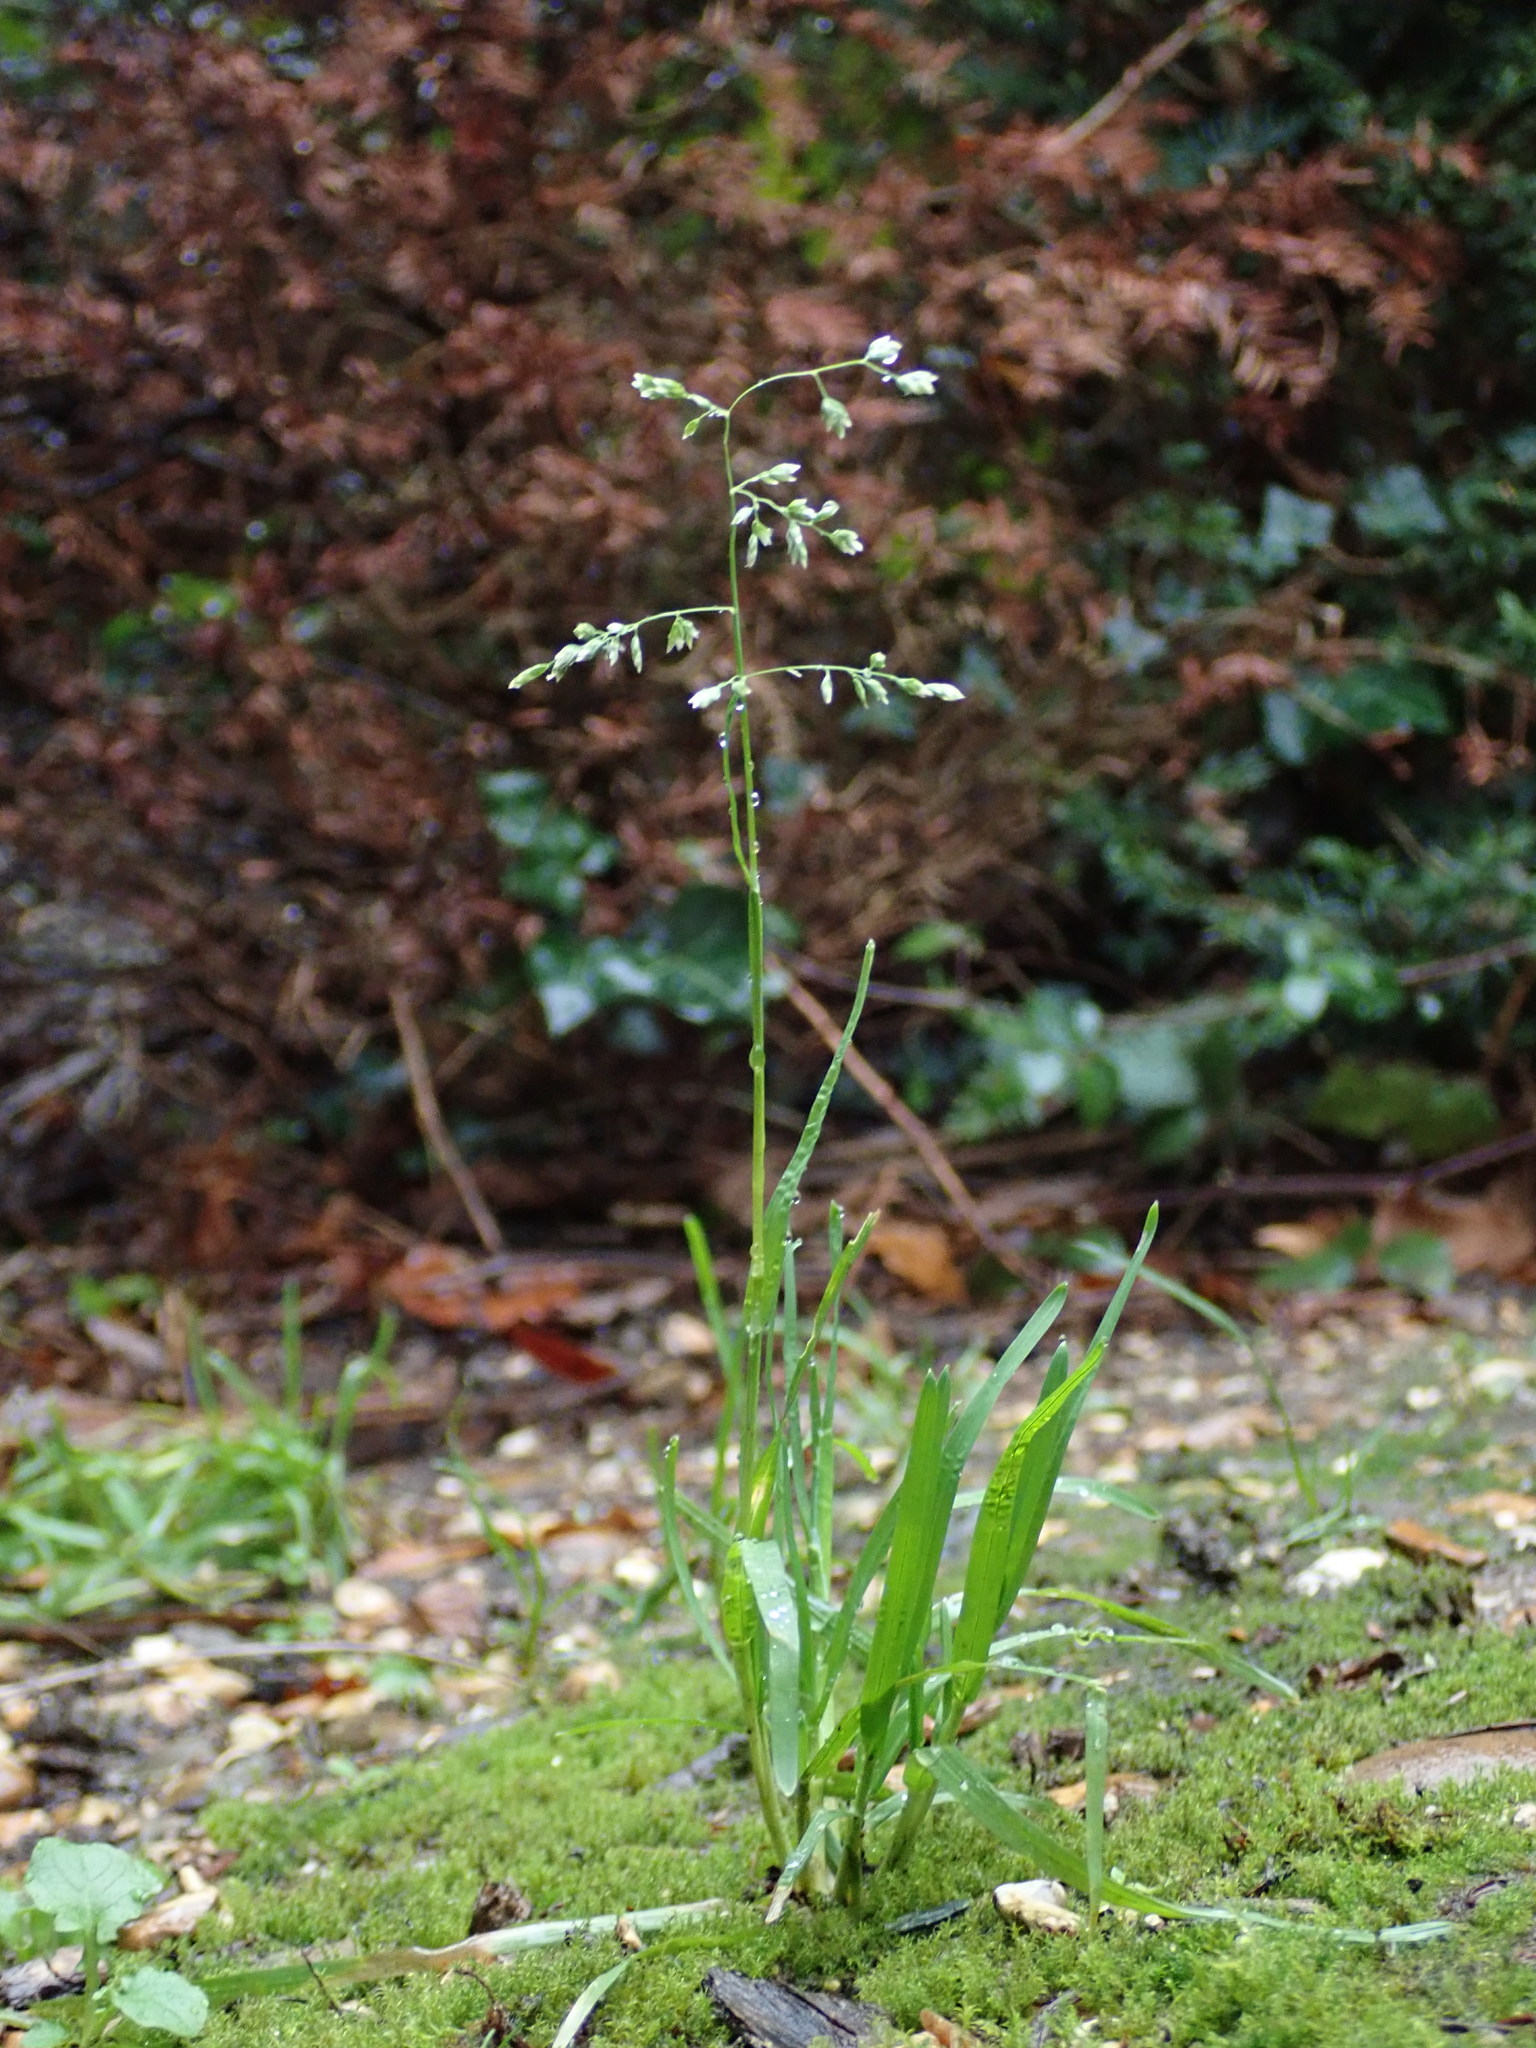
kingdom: Plantae
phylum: Tracheophyta
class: Liliopsida
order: Poales
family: Poaceae
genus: Poa
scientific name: Poa annua
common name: Annual bluegrass
